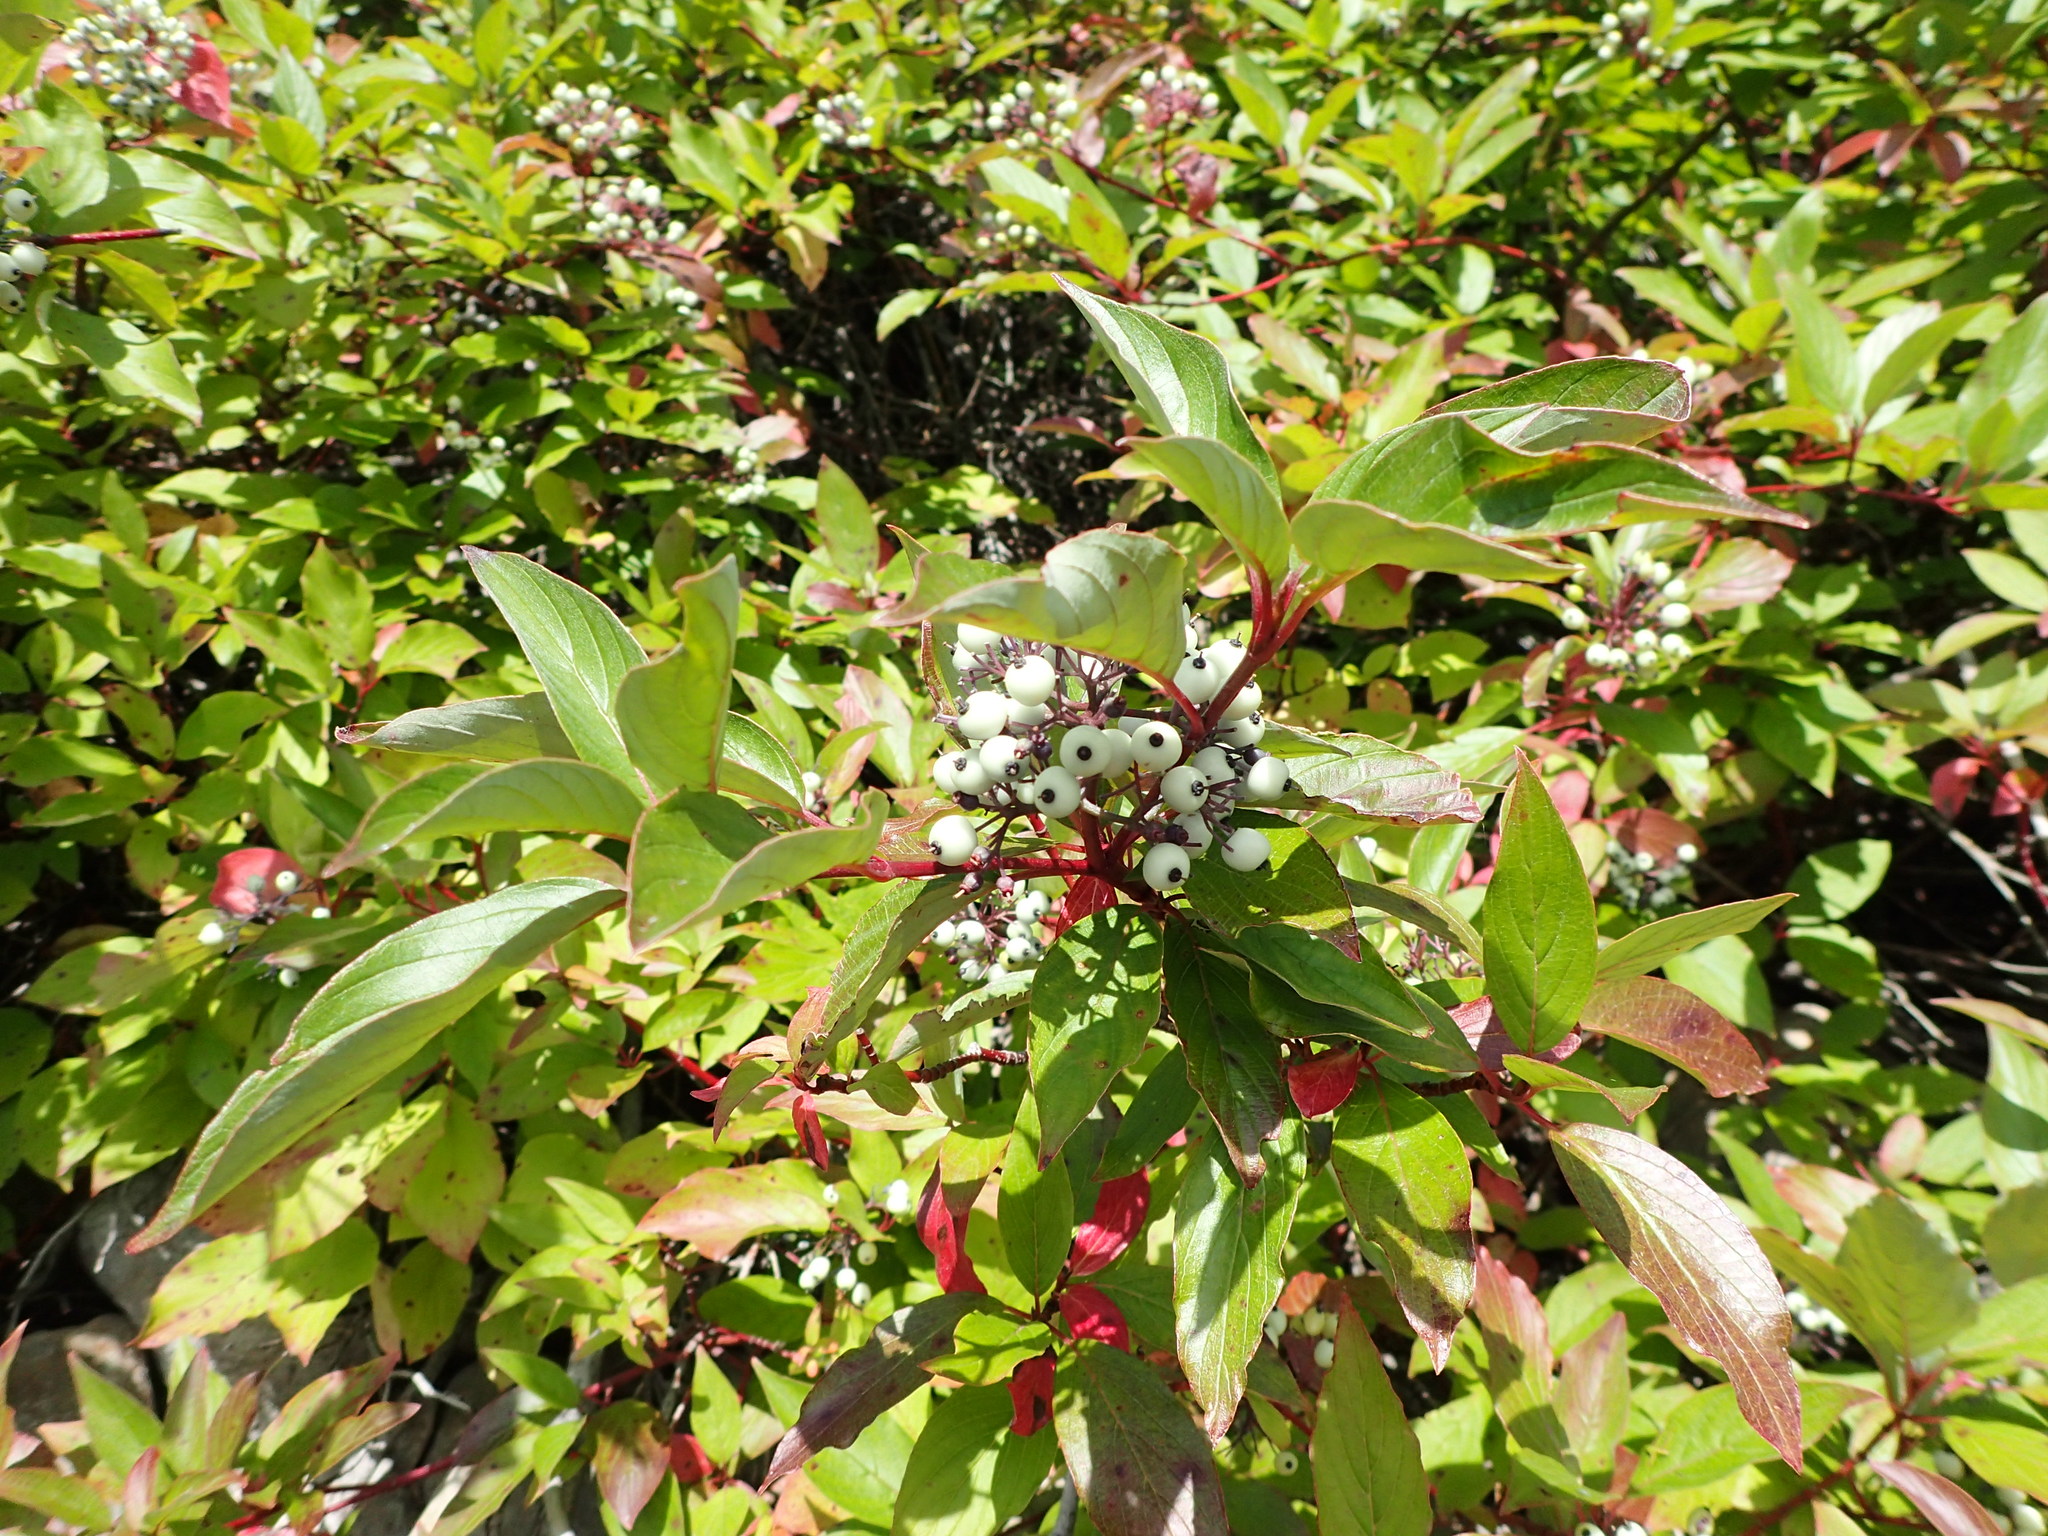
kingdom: Plantae
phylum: Tracheophyta
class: Magnoliopsida
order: Cornales
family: Cornaceae
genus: Cornus
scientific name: Cornus sericea
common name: Red-osier dogwood
